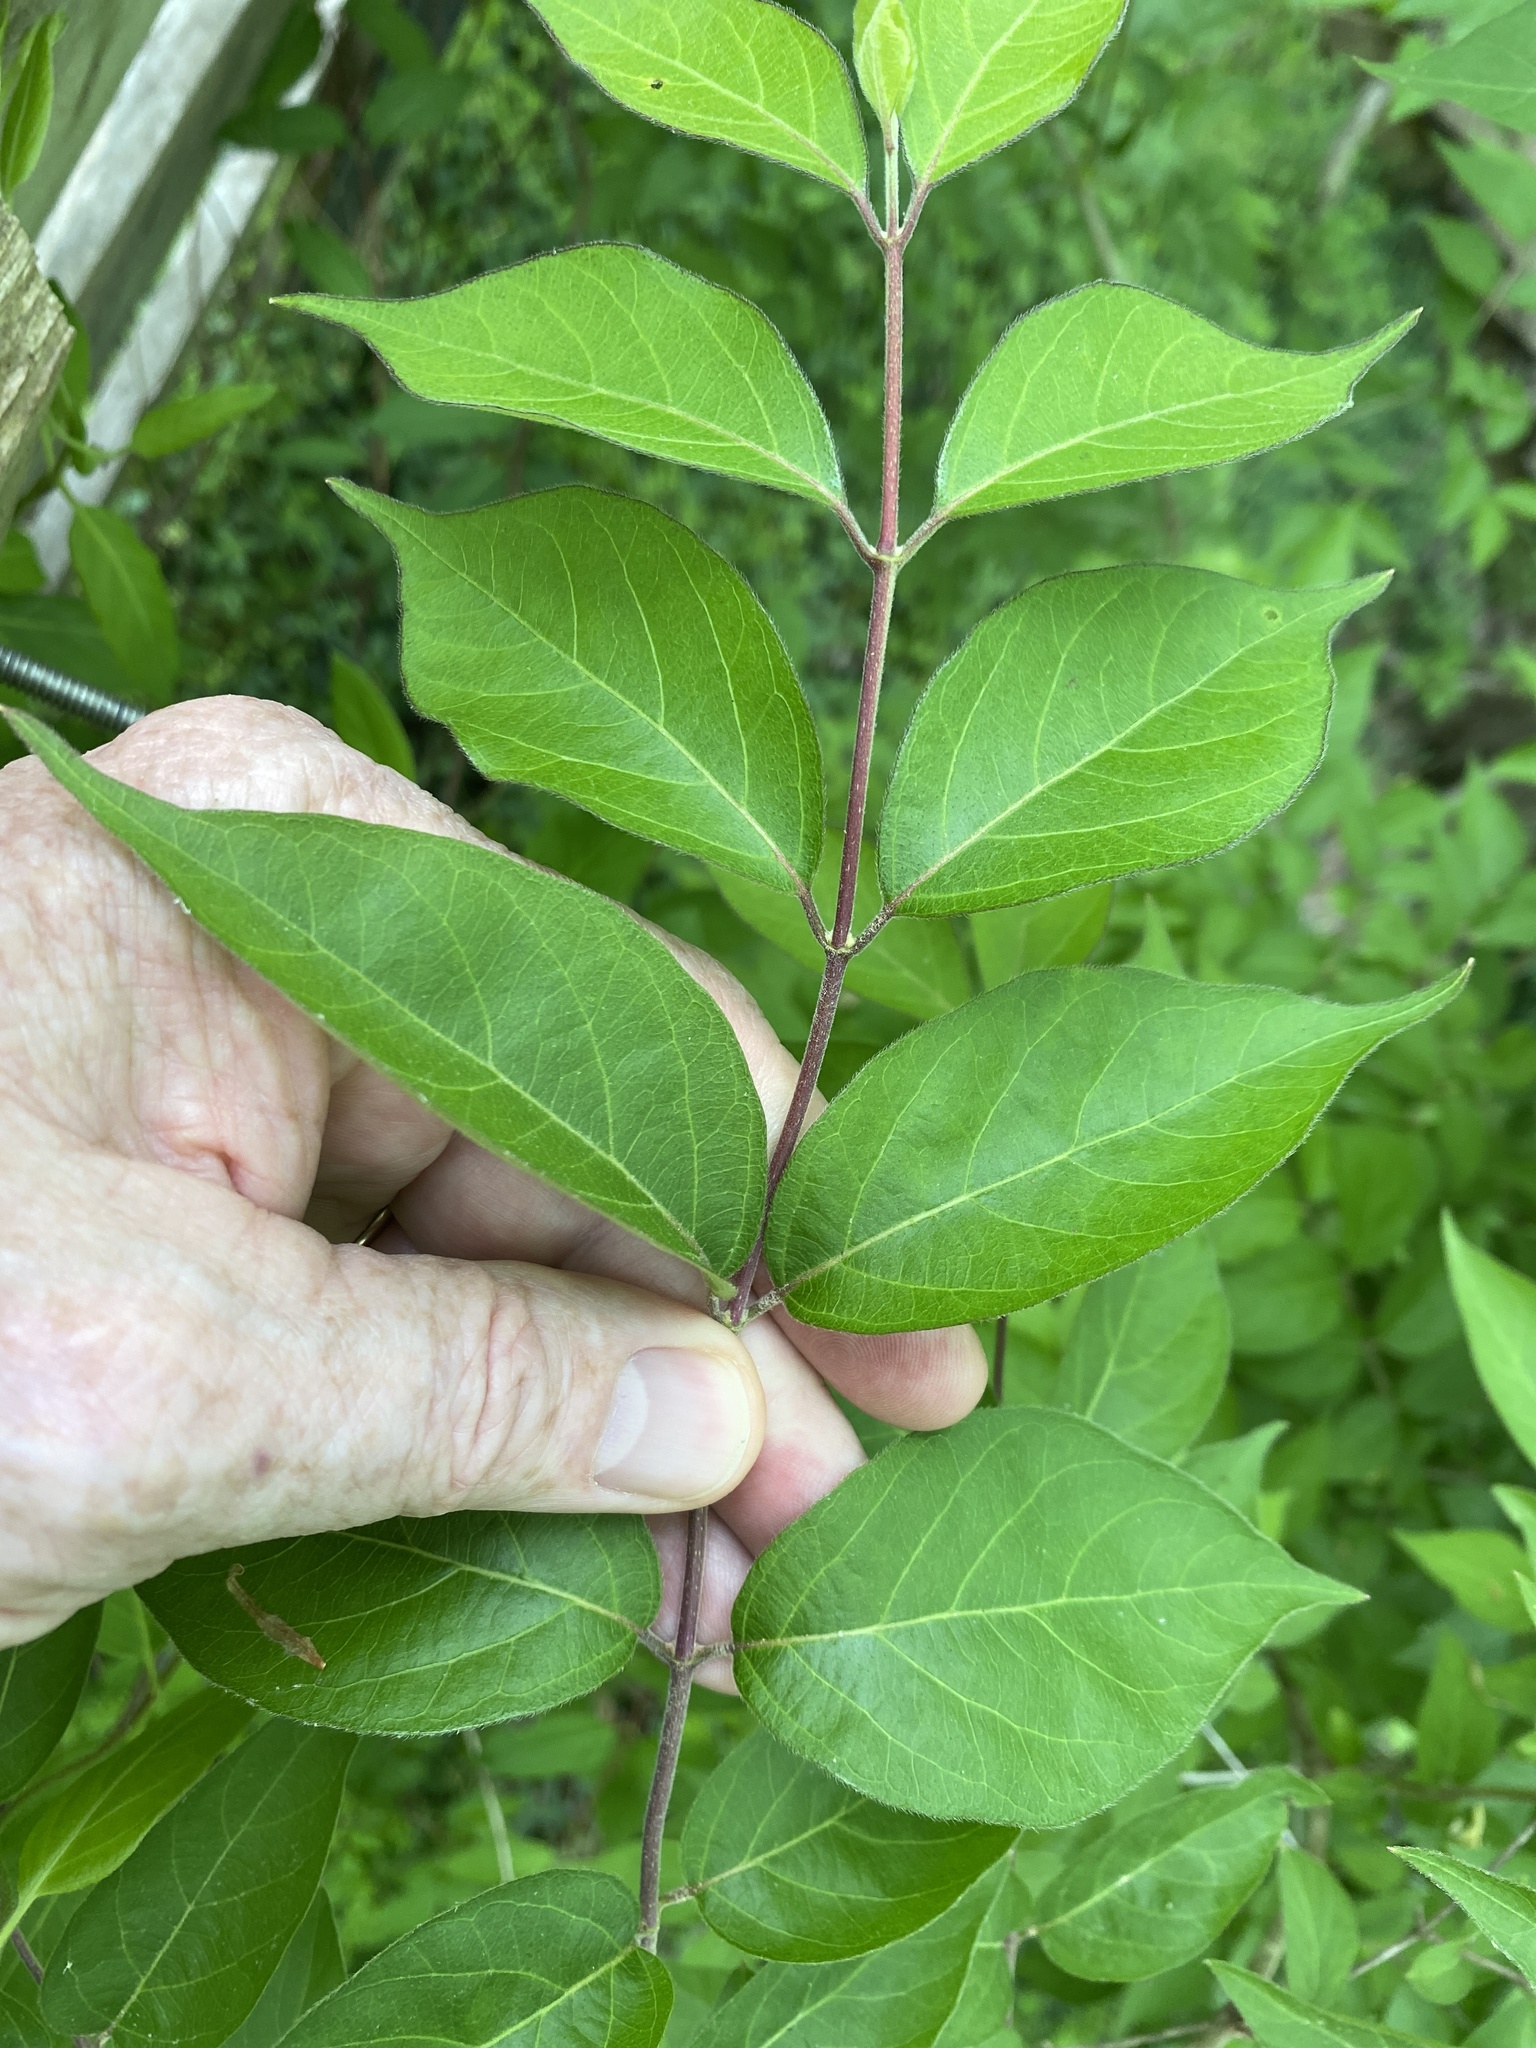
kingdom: Plantae
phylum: Tracheophyta
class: Magnoliopsida
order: Dipsacales
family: Caprifoliaceae
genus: Lonicera
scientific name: Lonicera maackii
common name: Amur honeysuckle
